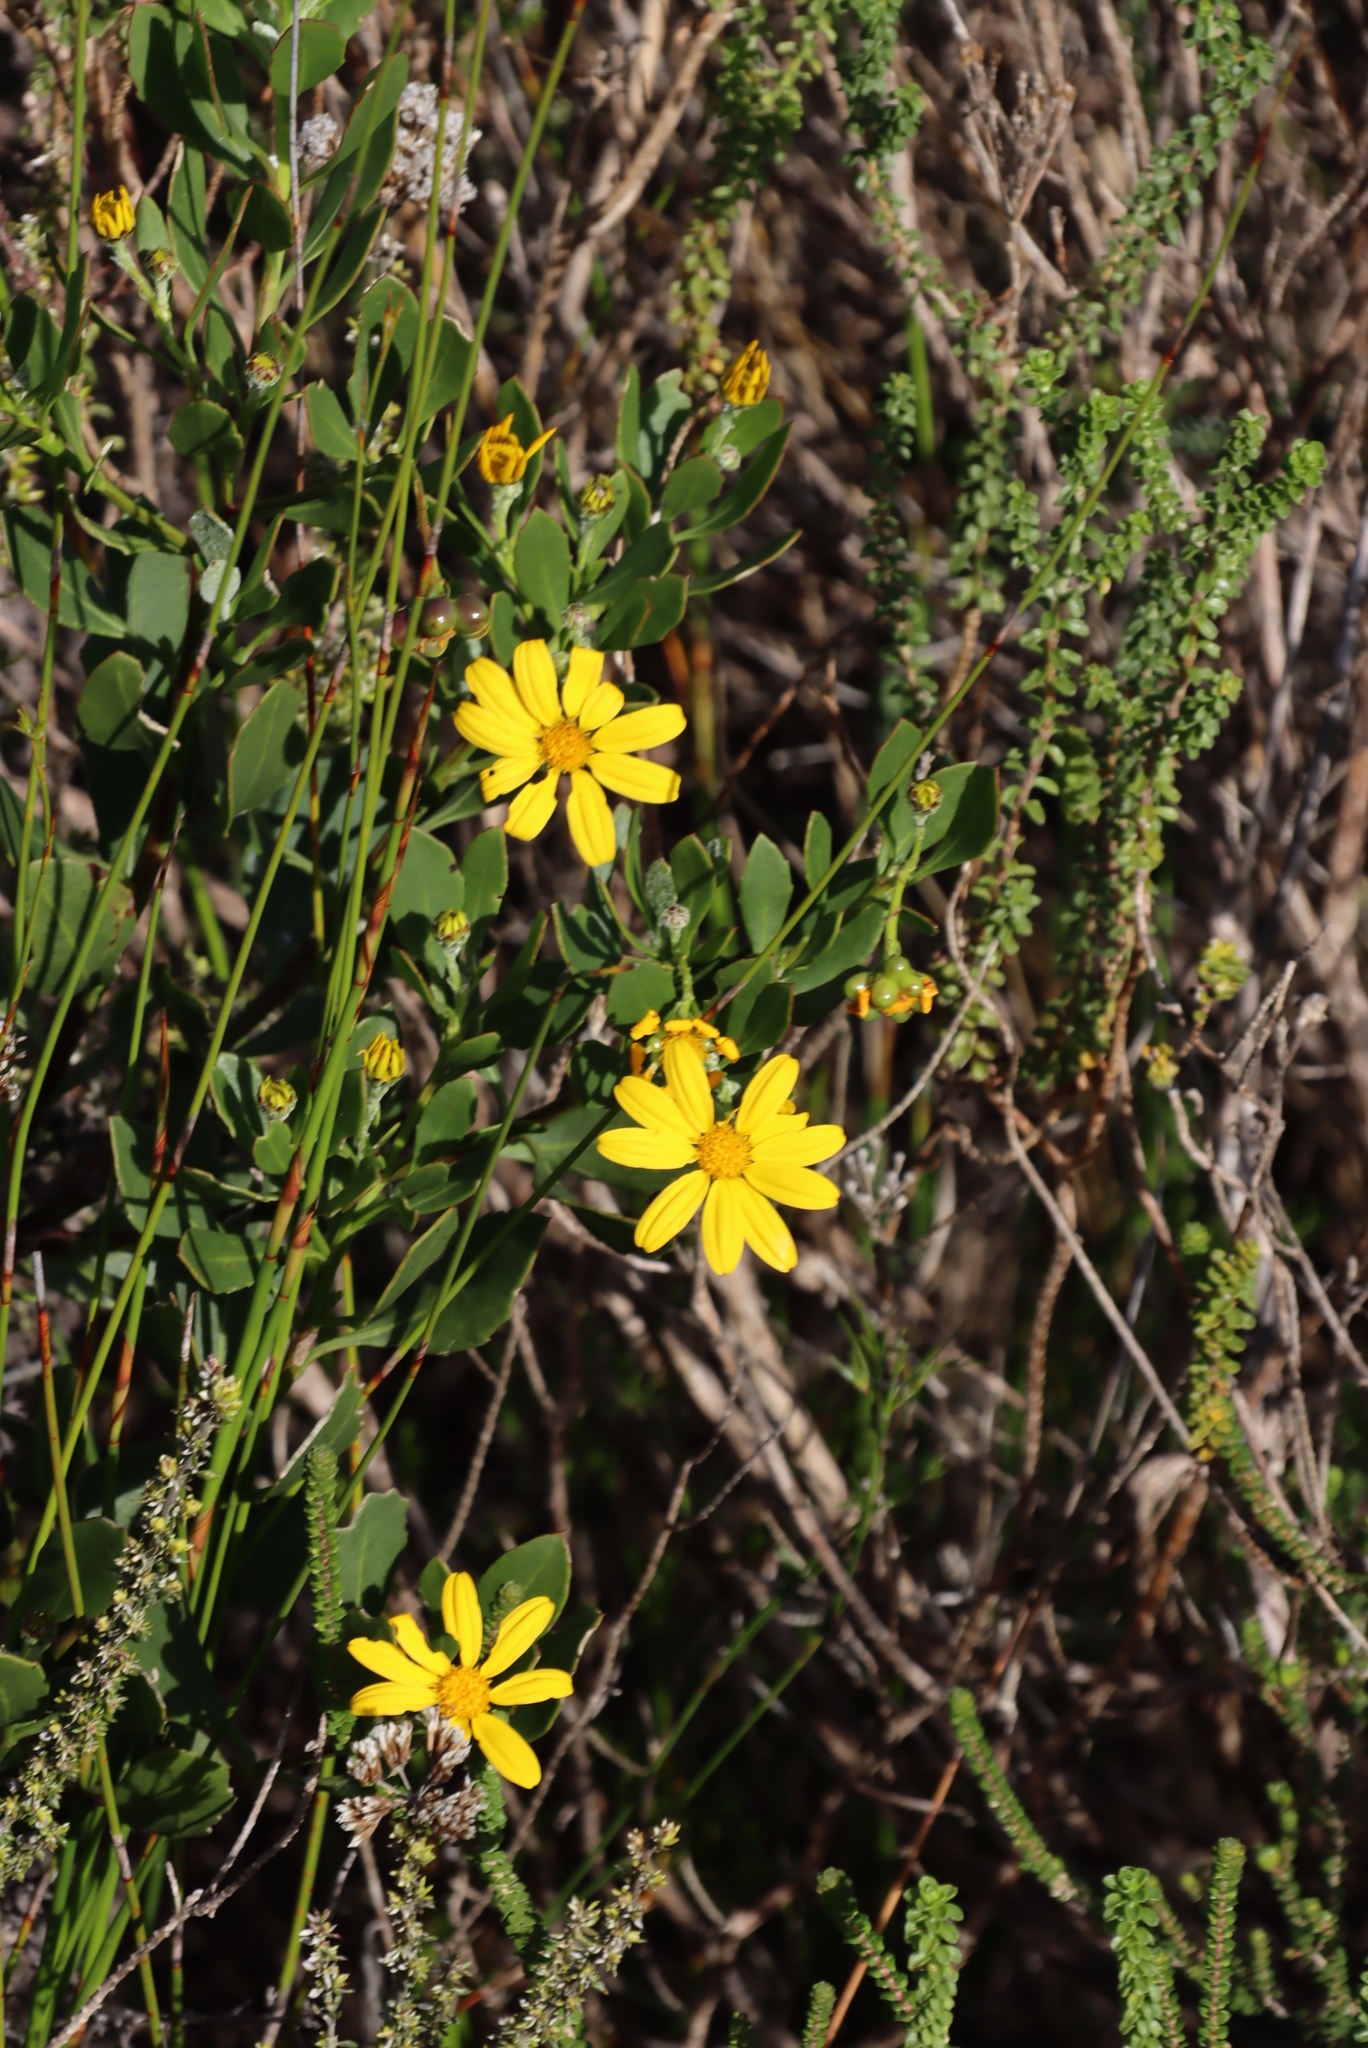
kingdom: Plantae
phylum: Tracheophyta
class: Magnoliopsida
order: Asterales
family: Asteraceae
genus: Osteospermum
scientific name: Osteospermum moniliferum
